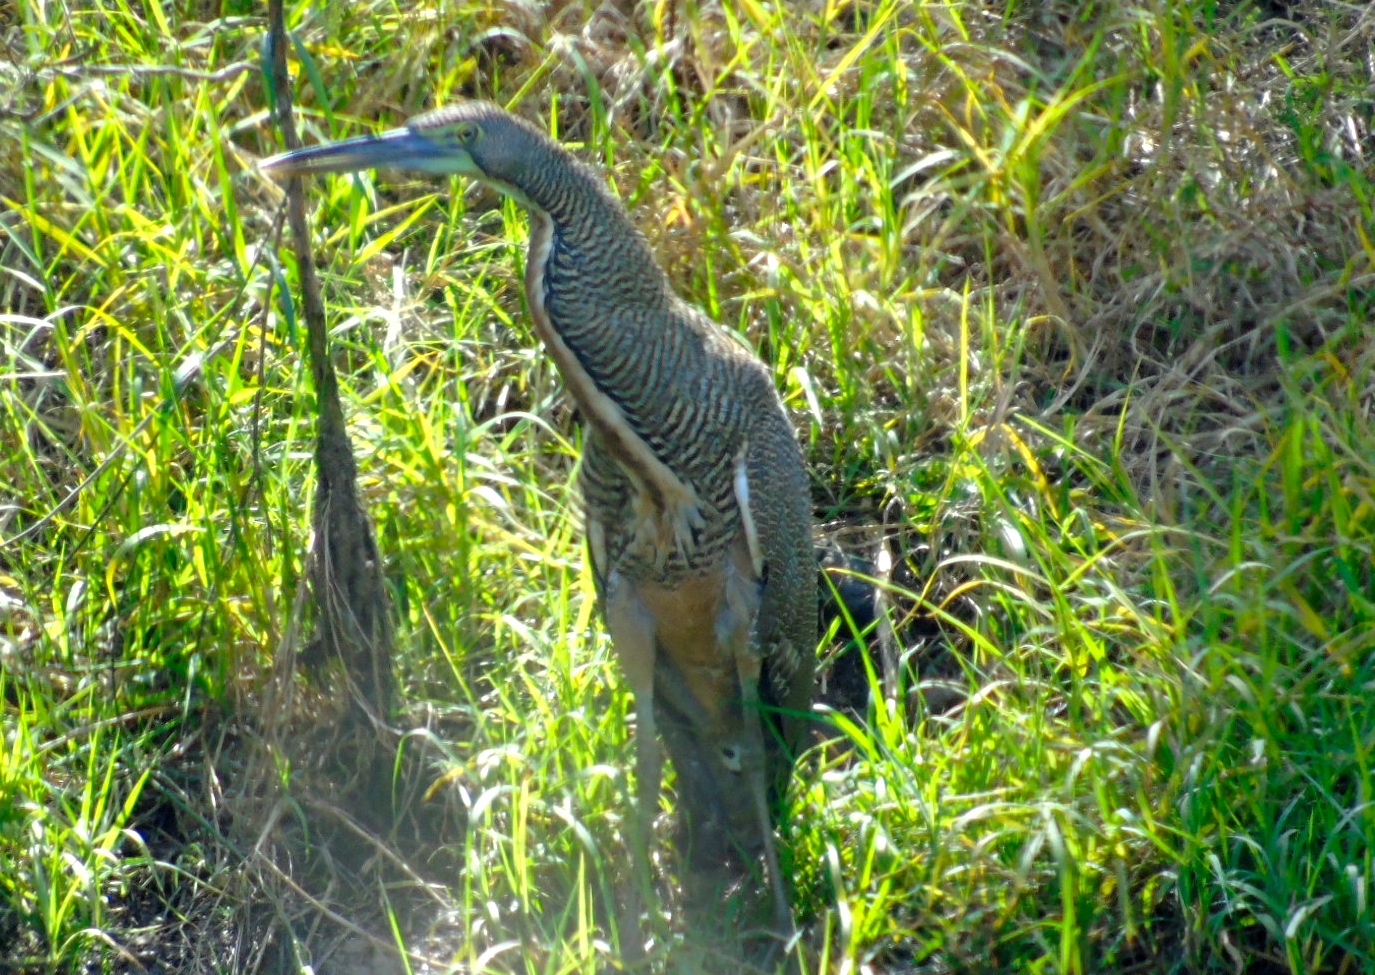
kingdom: Animalia
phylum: Chordata
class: Aves
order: Pelecaniformes
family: Ardeidae
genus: Tigrisoma
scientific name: Tigrisoma mexicanum
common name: Bare-throated tiger-heron
